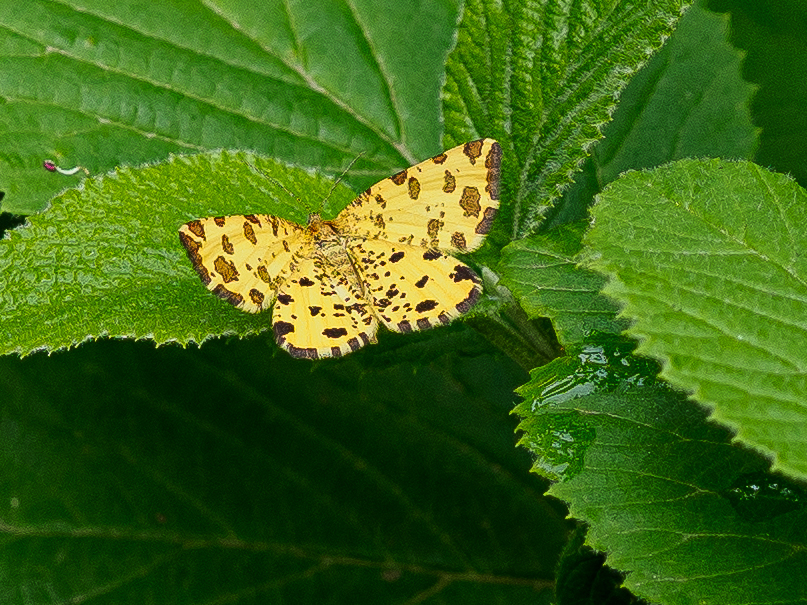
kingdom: Animalia
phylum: Arthropoda
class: Insecta
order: Lepidoptera
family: Geometridae
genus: Pseudopanthera
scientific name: Pseudopanthera macularia
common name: Speckled yellow
